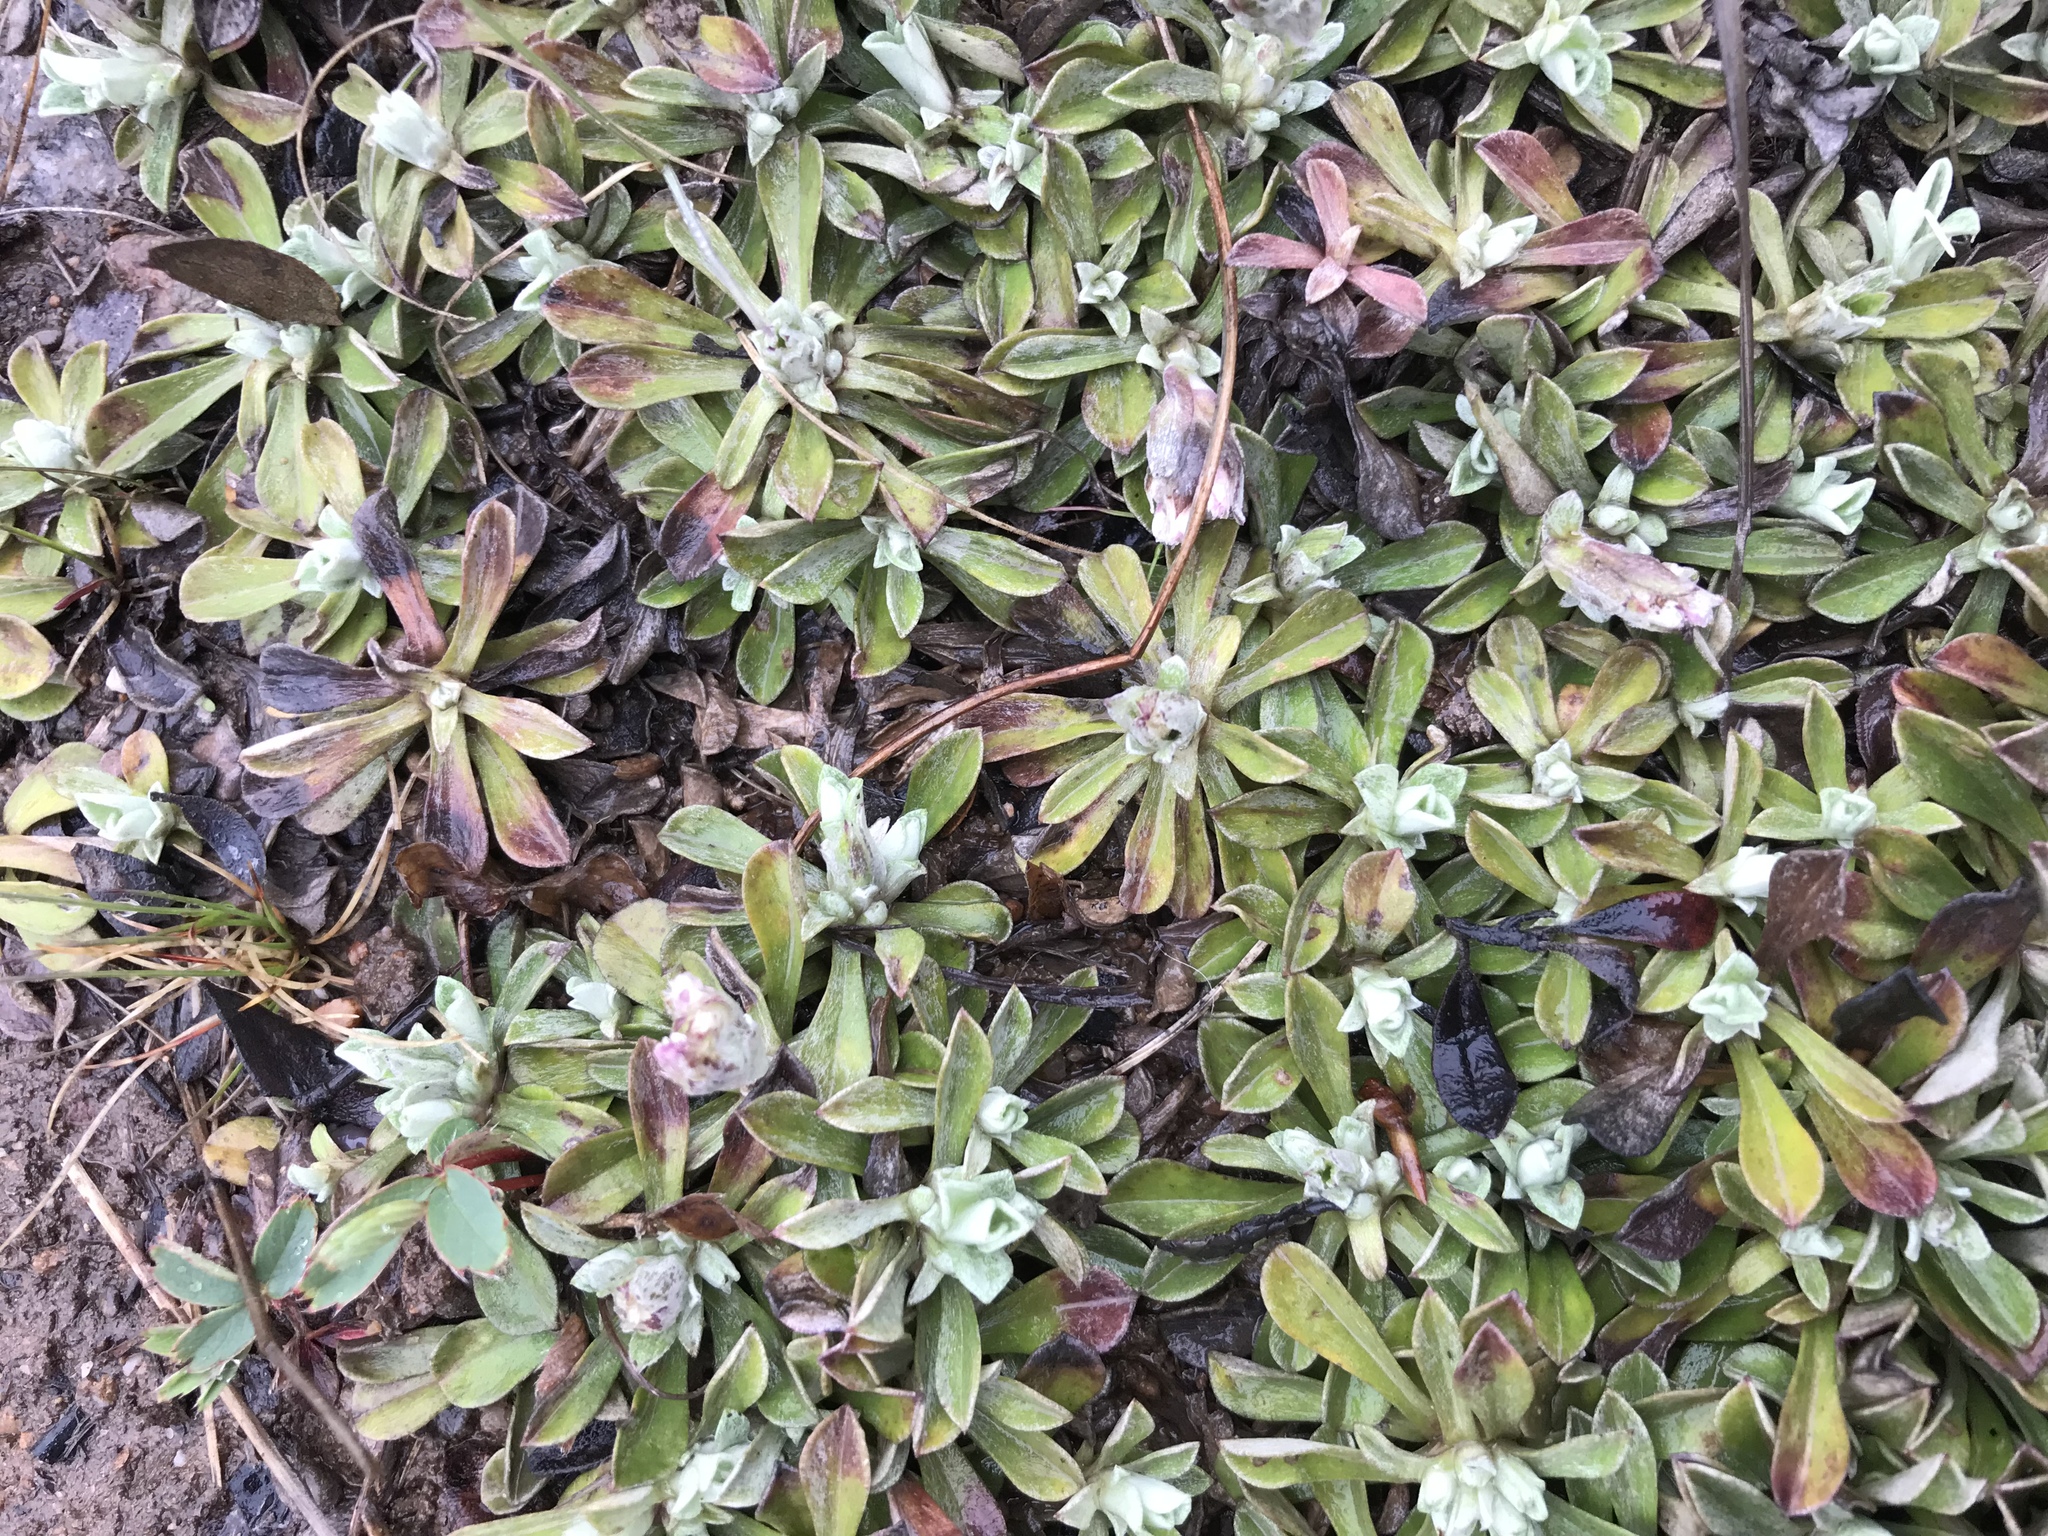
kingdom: Plantae
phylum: Tracheophyta
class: Magnoliopsida
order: Asterales
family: Asteraceae
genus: Antennaria
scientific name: Antennaria rosea
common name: Rosy pussytoes
